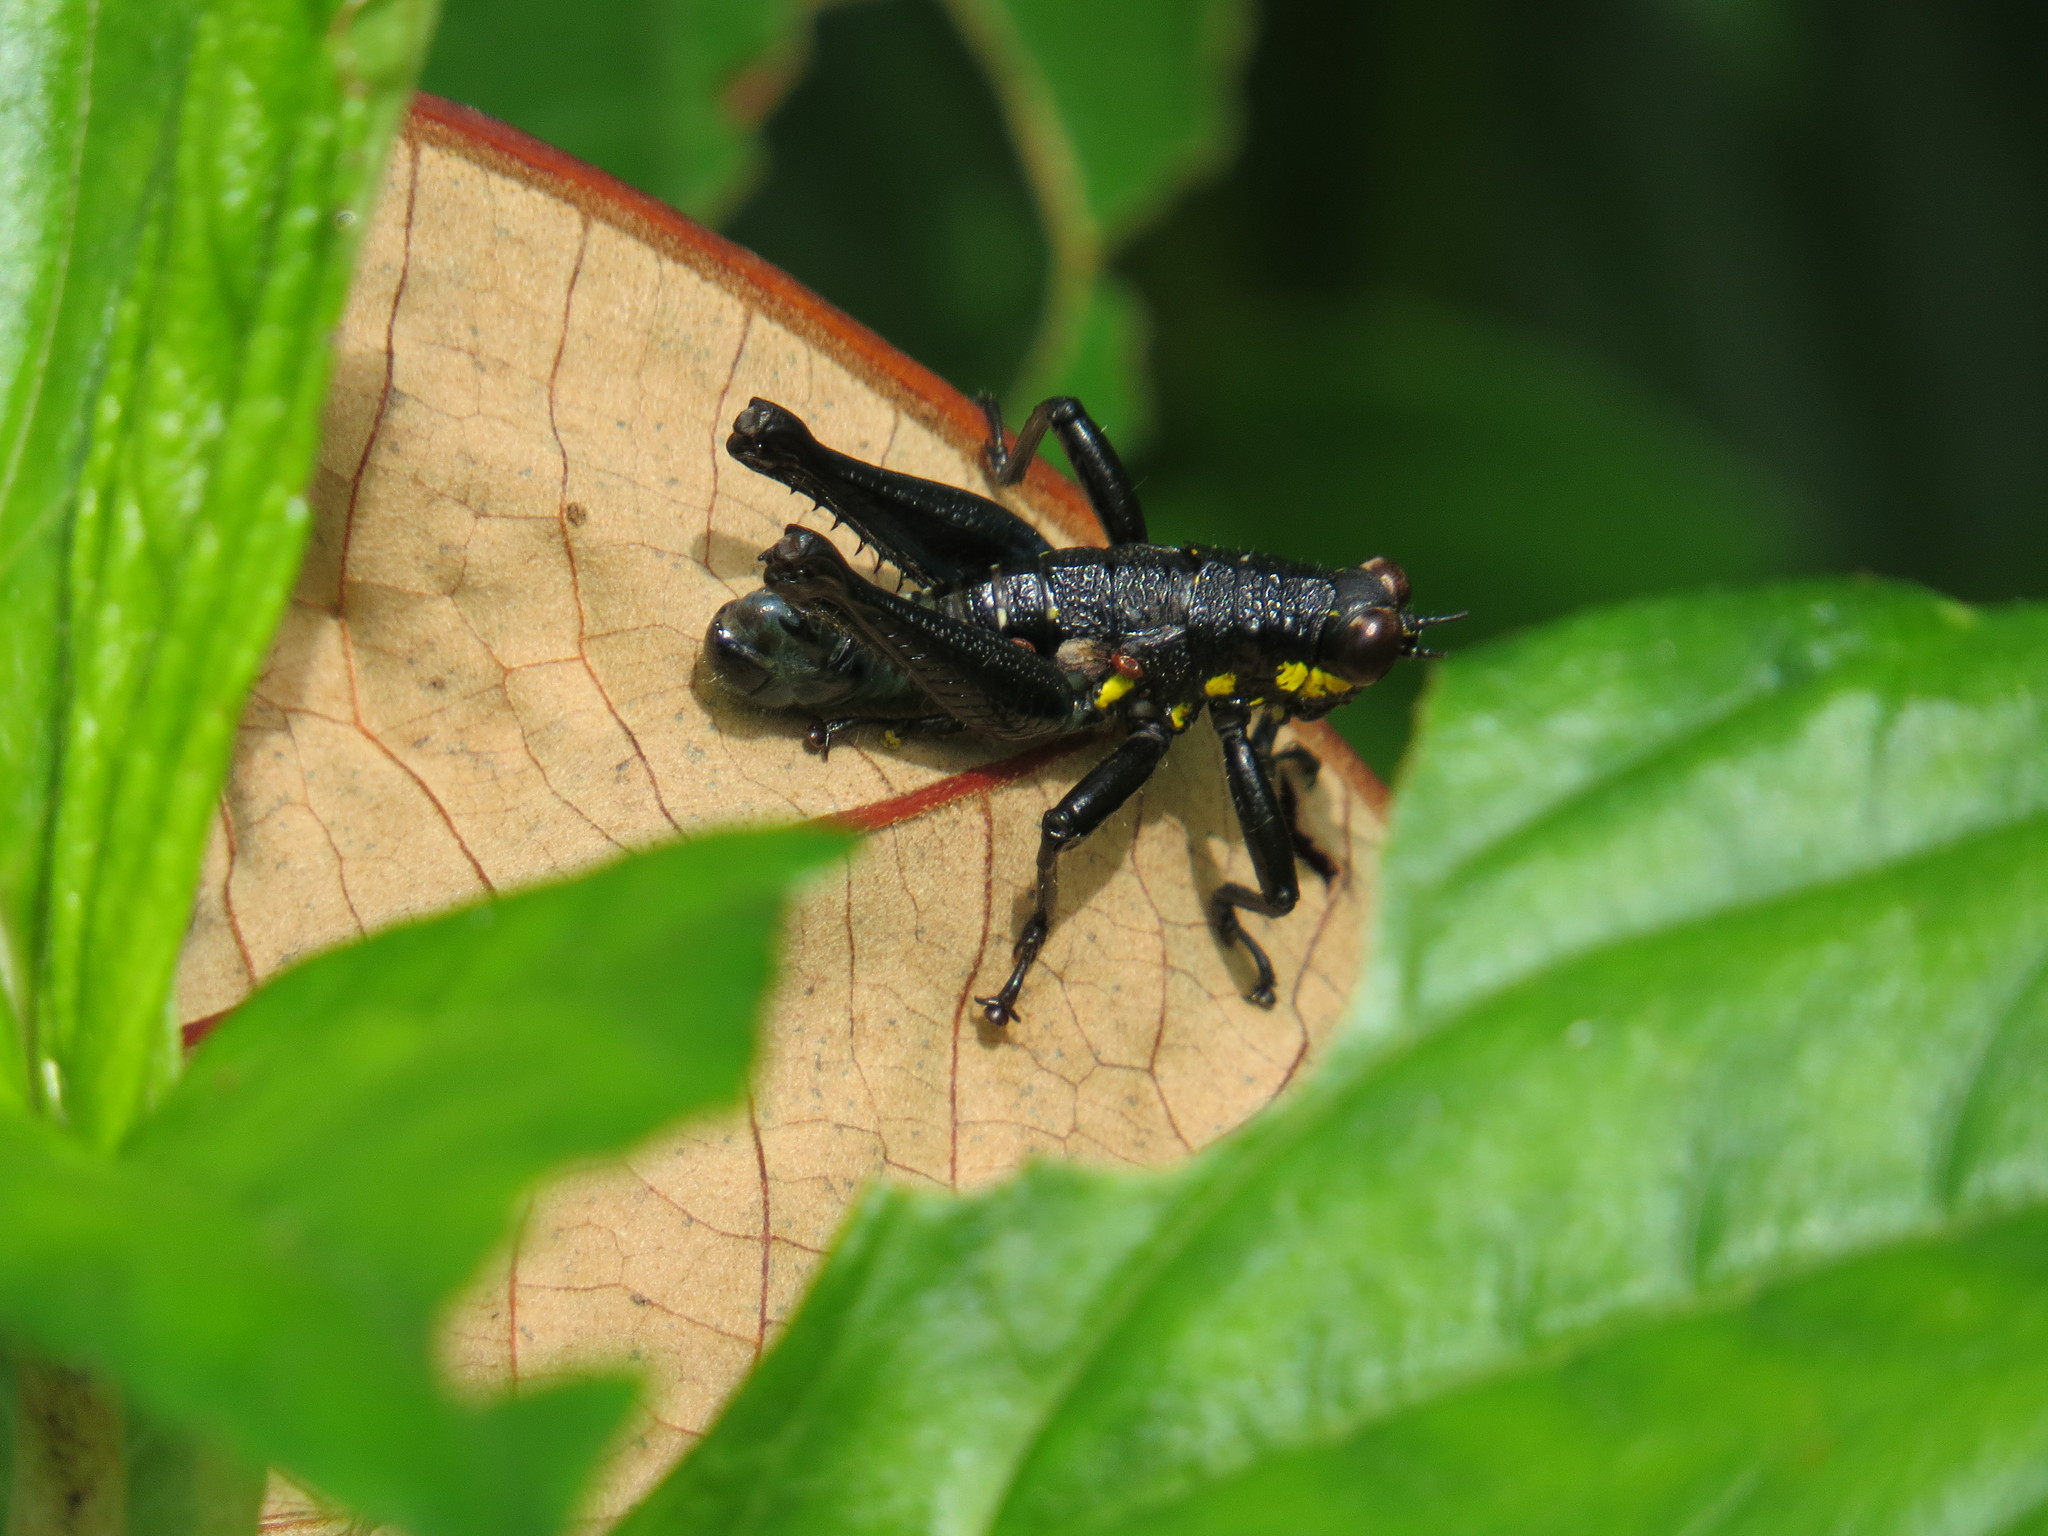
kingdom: Animalia
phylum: Arthropoda
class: Insecta
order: Orthoptera
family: Acrididae
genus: Rhachicreagra
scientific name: Rhachicreagra obsidian
